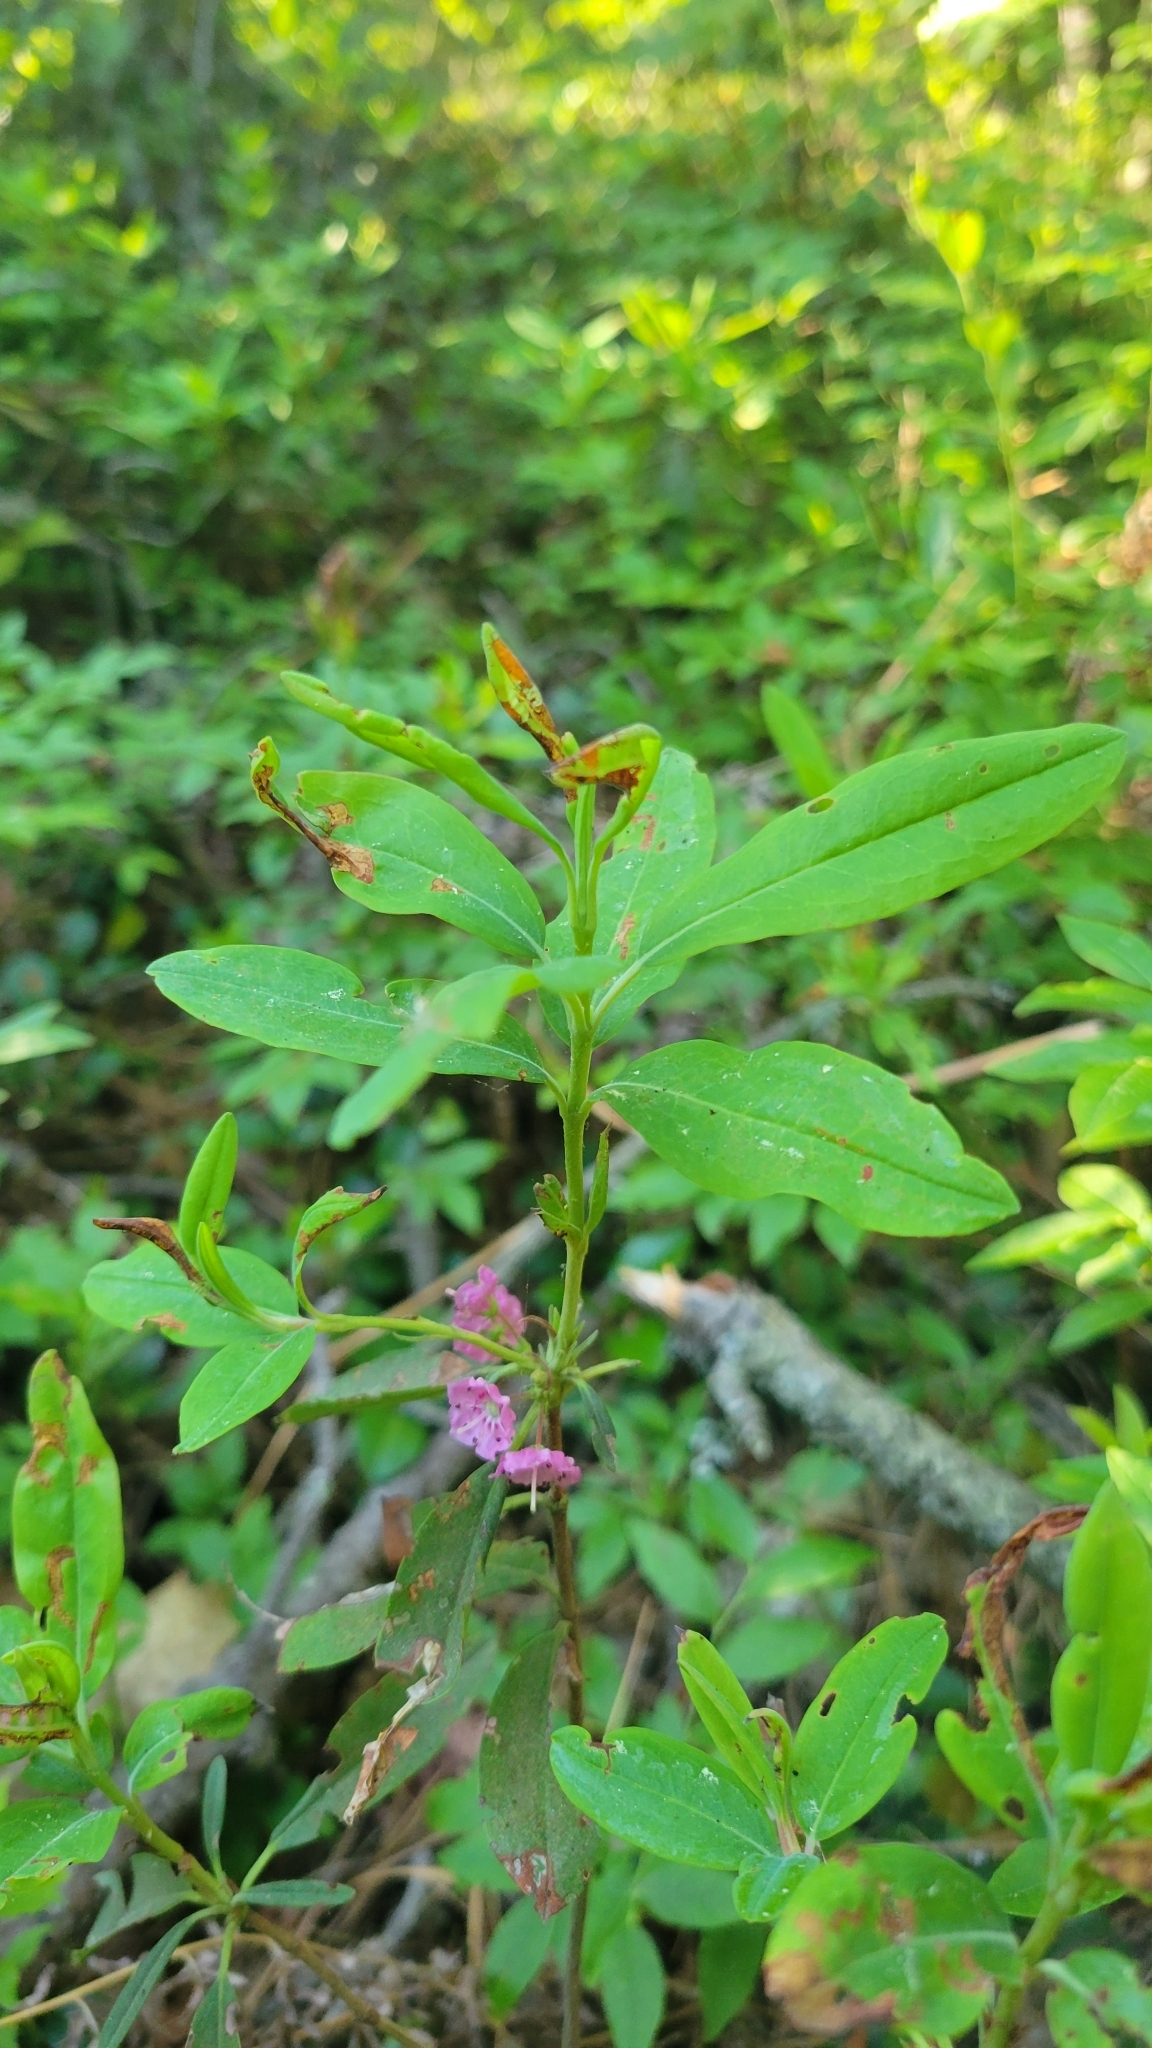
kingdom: Plantae
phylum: Tracheophyta
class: Magnoliopsida
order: Ericales
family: Ericaceae
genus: Kalmia
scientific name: Kalmia angustifolia
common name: Sheep-laurel
